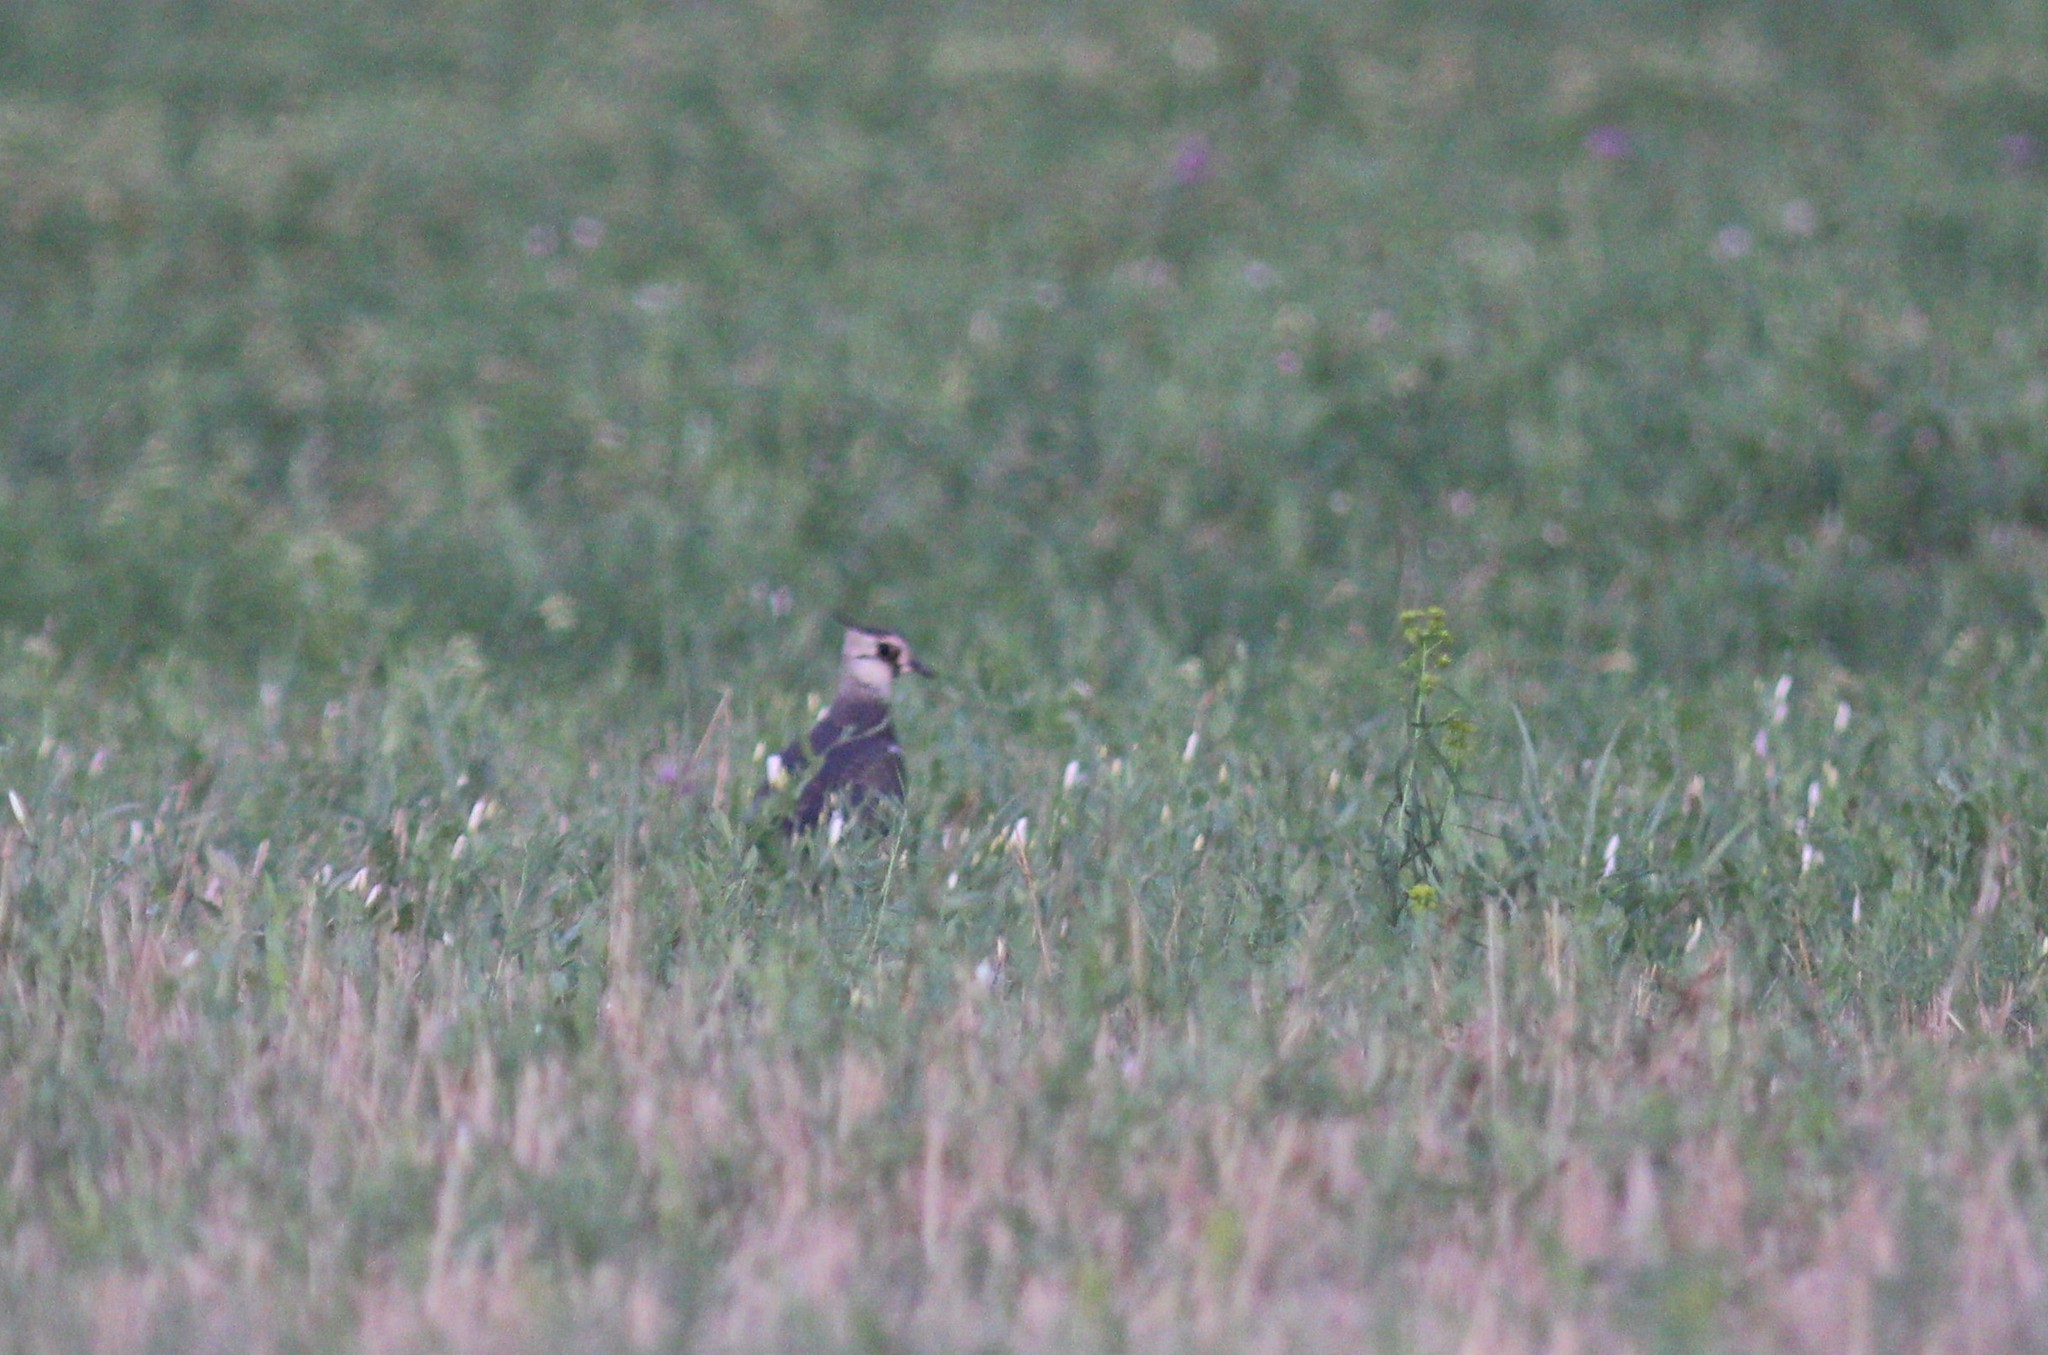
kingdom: Animalia
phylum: Chordata
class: Aves
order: Charadriiformes
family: Charadriidae
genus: Vanellus
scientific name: Vanellus vanellus
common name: Northern lapwing
